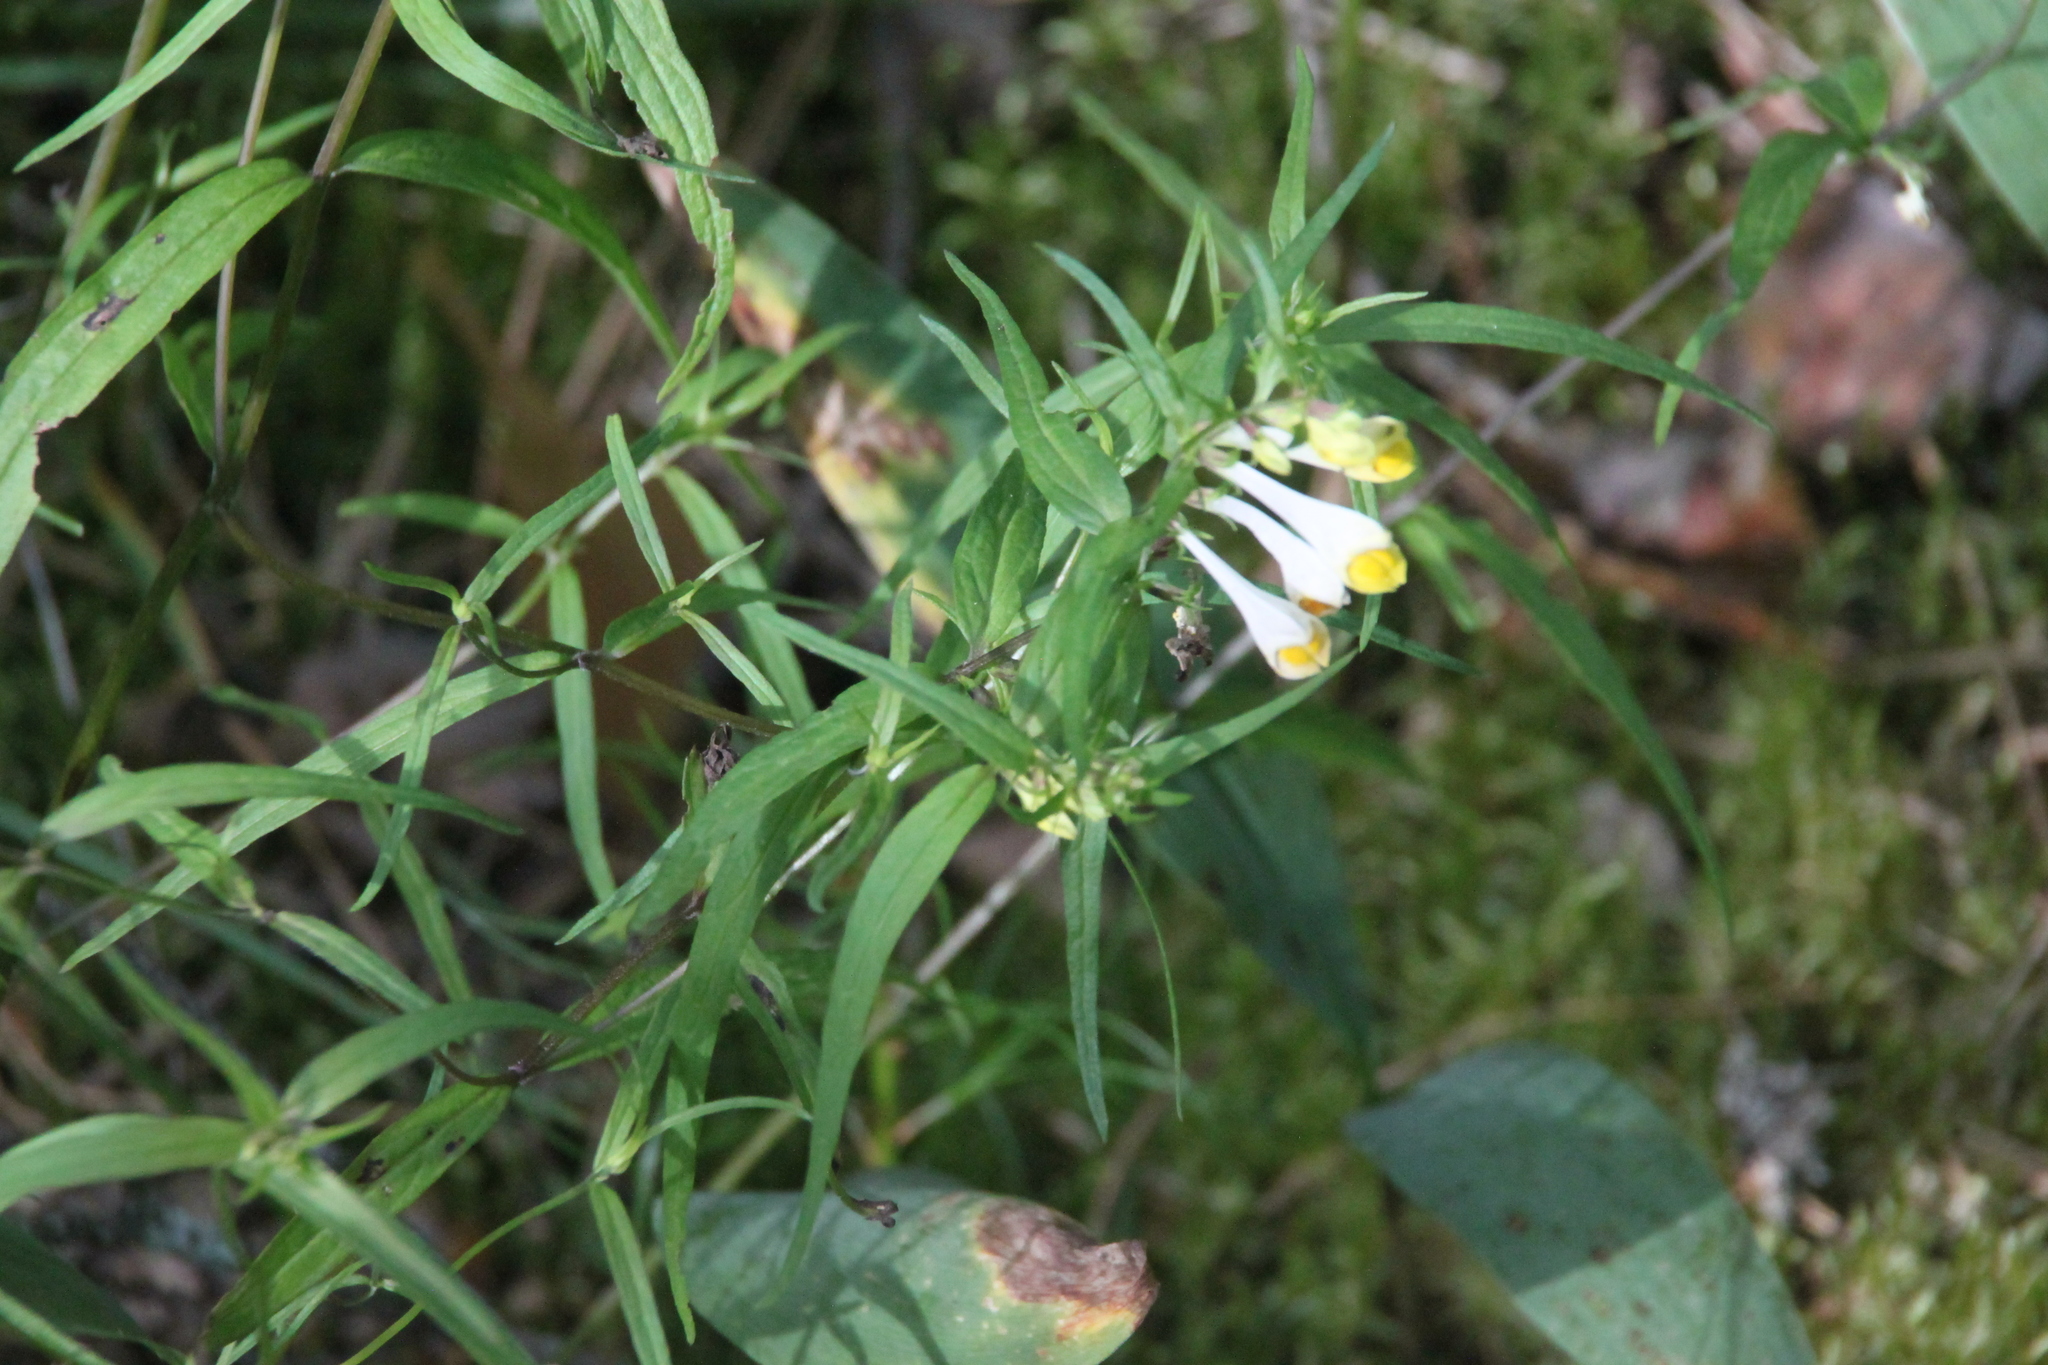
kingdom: Plantae
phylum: Tracheophyta
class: Magnoliopsida
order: Lamiales
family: Orobanchaceae
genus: Melampyrum
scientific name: Melampyrum pratense
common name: Common cow-wheat
